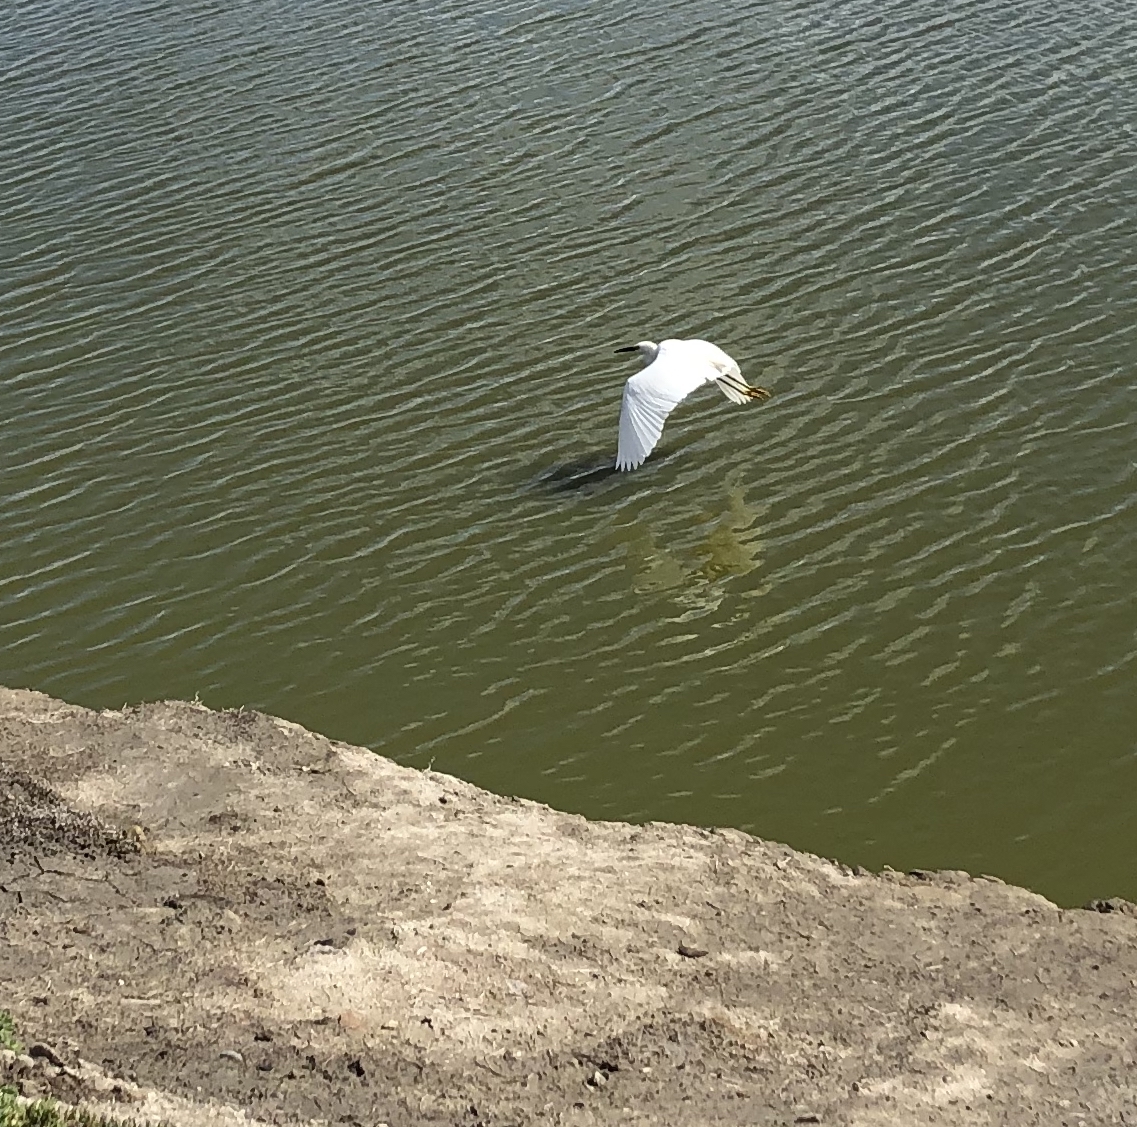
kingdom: Animalia
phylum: Chordata
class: Aves
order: Pelecaniformes
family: Ardeidae
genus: Egretta
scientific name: Egretta thula
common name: Snowy egret
